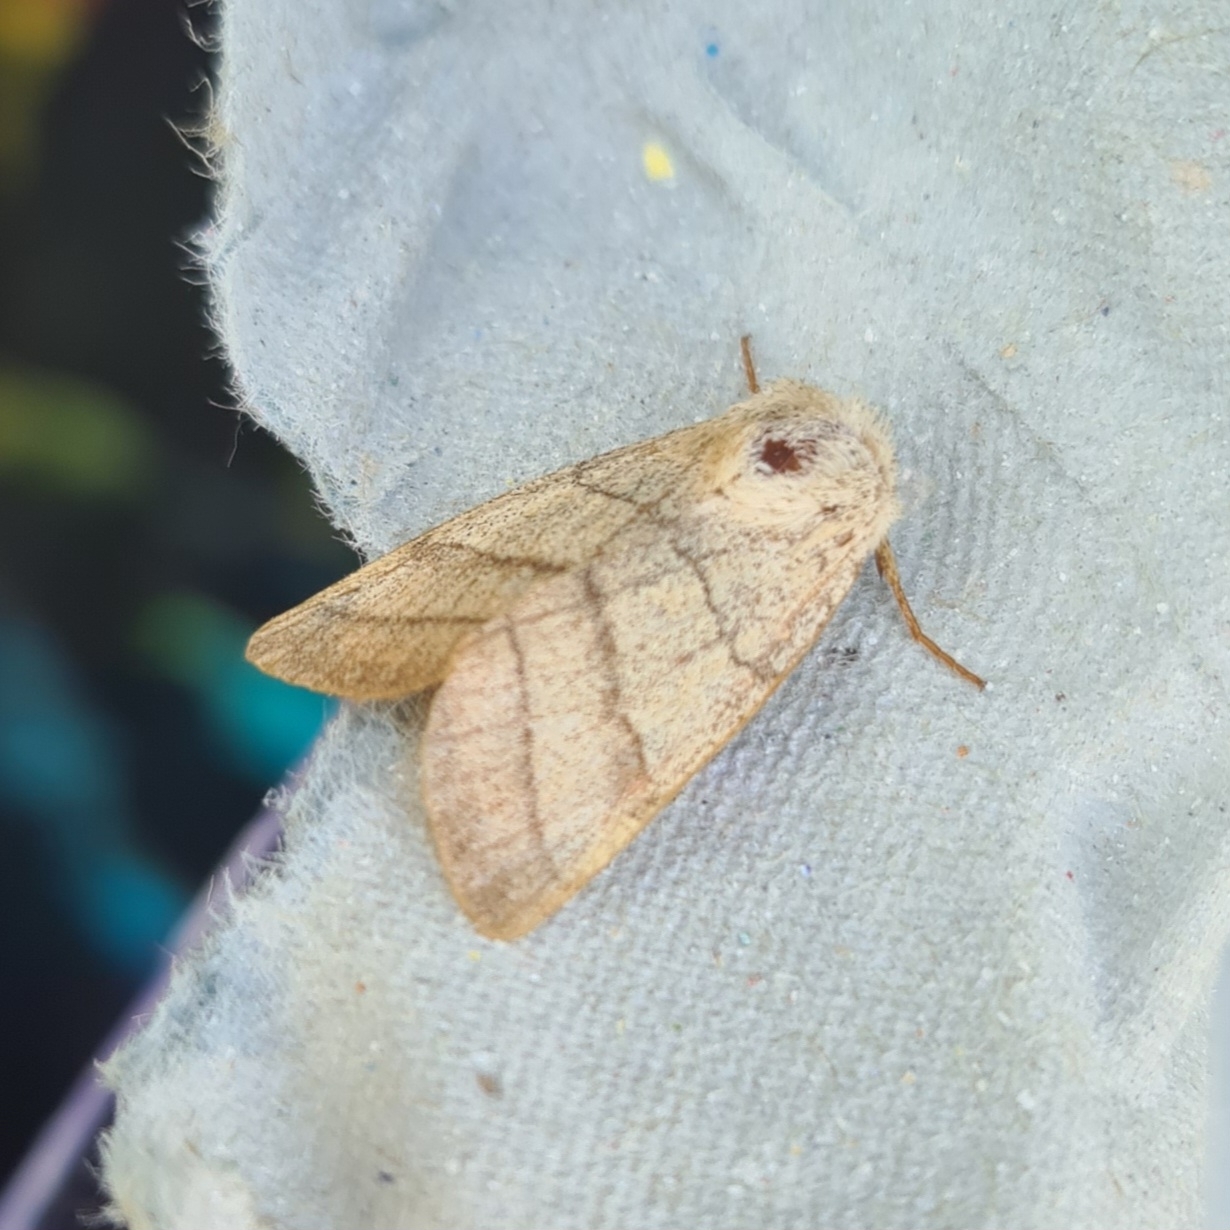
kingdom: Animalia
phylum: Arthropoda
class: Insecta
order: Lepidoptera
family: Noctuidae
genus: Charanyca
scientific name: Charanyca trigrammica
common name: Treble lines
